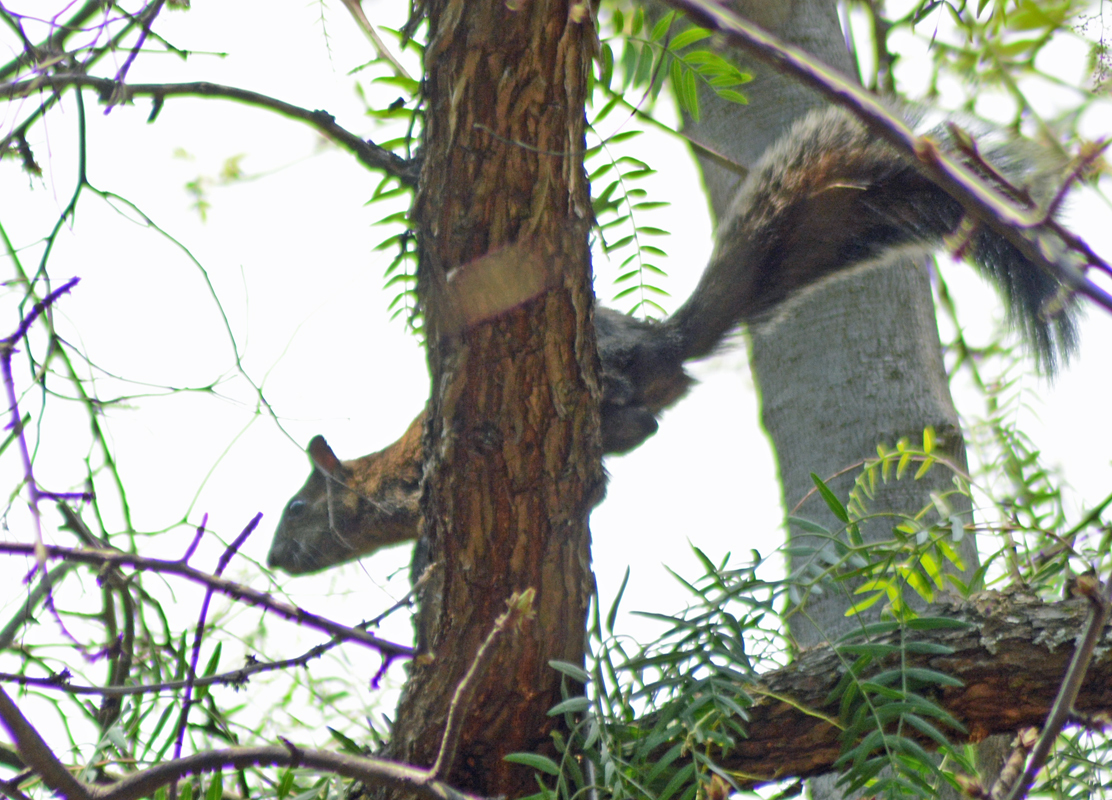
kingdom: Animalia
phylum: Chordata
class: Mammalia
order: Rodentia
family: Sciuridae
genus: Sciurus
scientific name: Sciurus aureogaster
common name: Red-bellied squirrel
